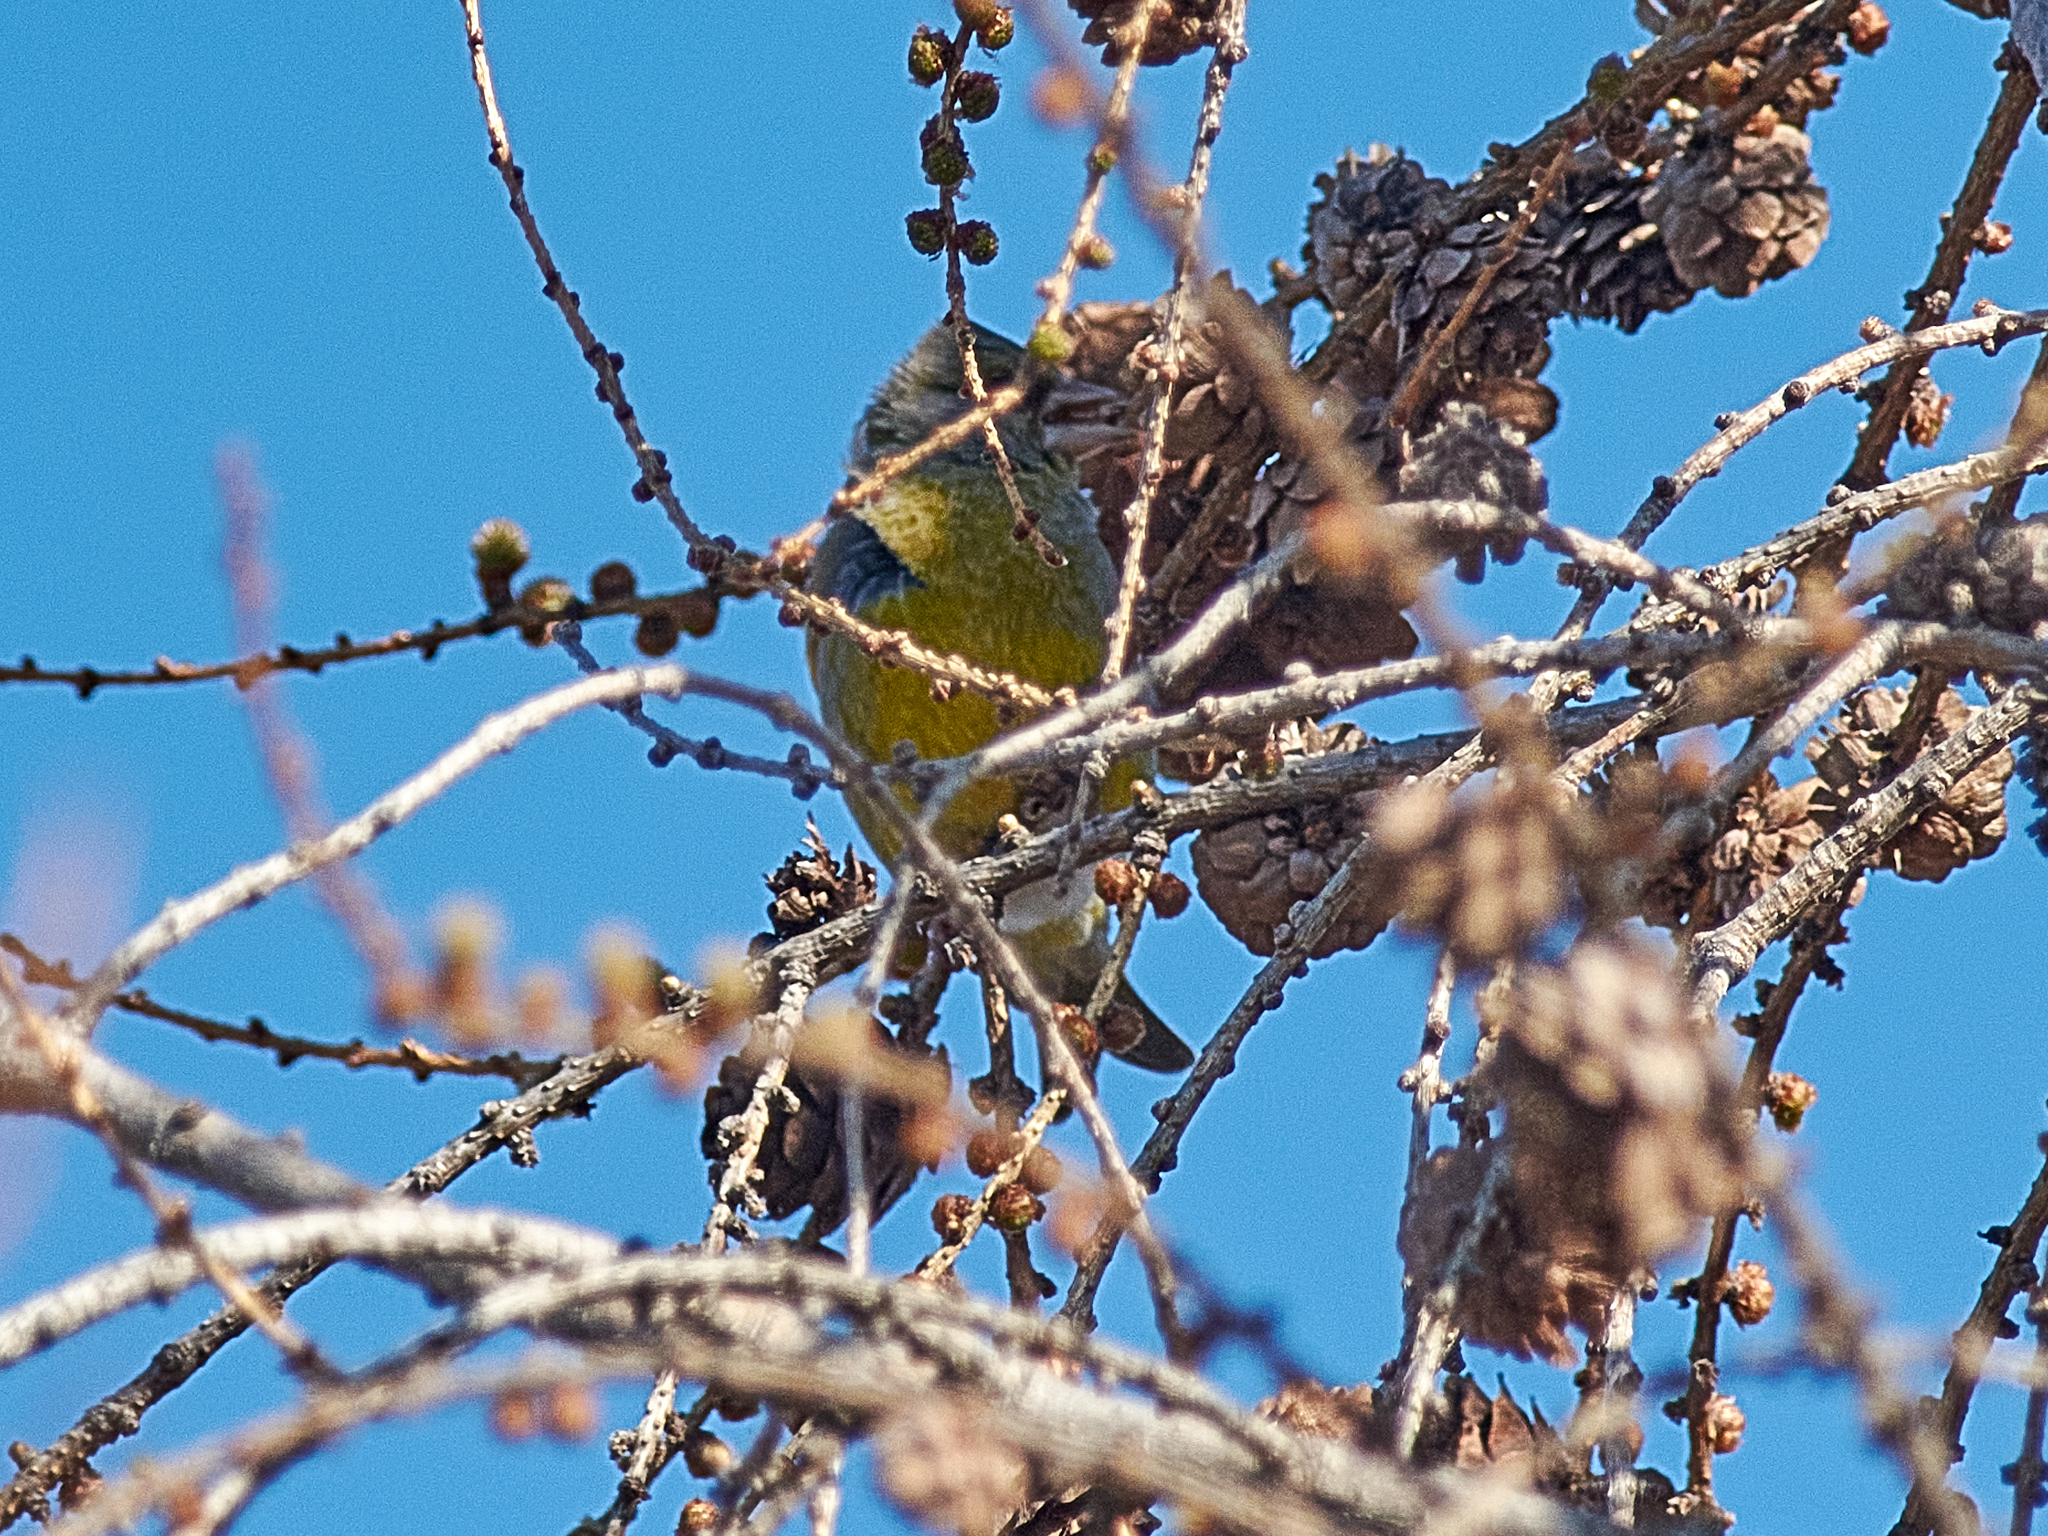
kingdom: Plantae
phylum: Tracheophyta
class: Liliopsida
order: Poales
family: Poaceae
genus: Chloris
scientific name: Chloris chloris
